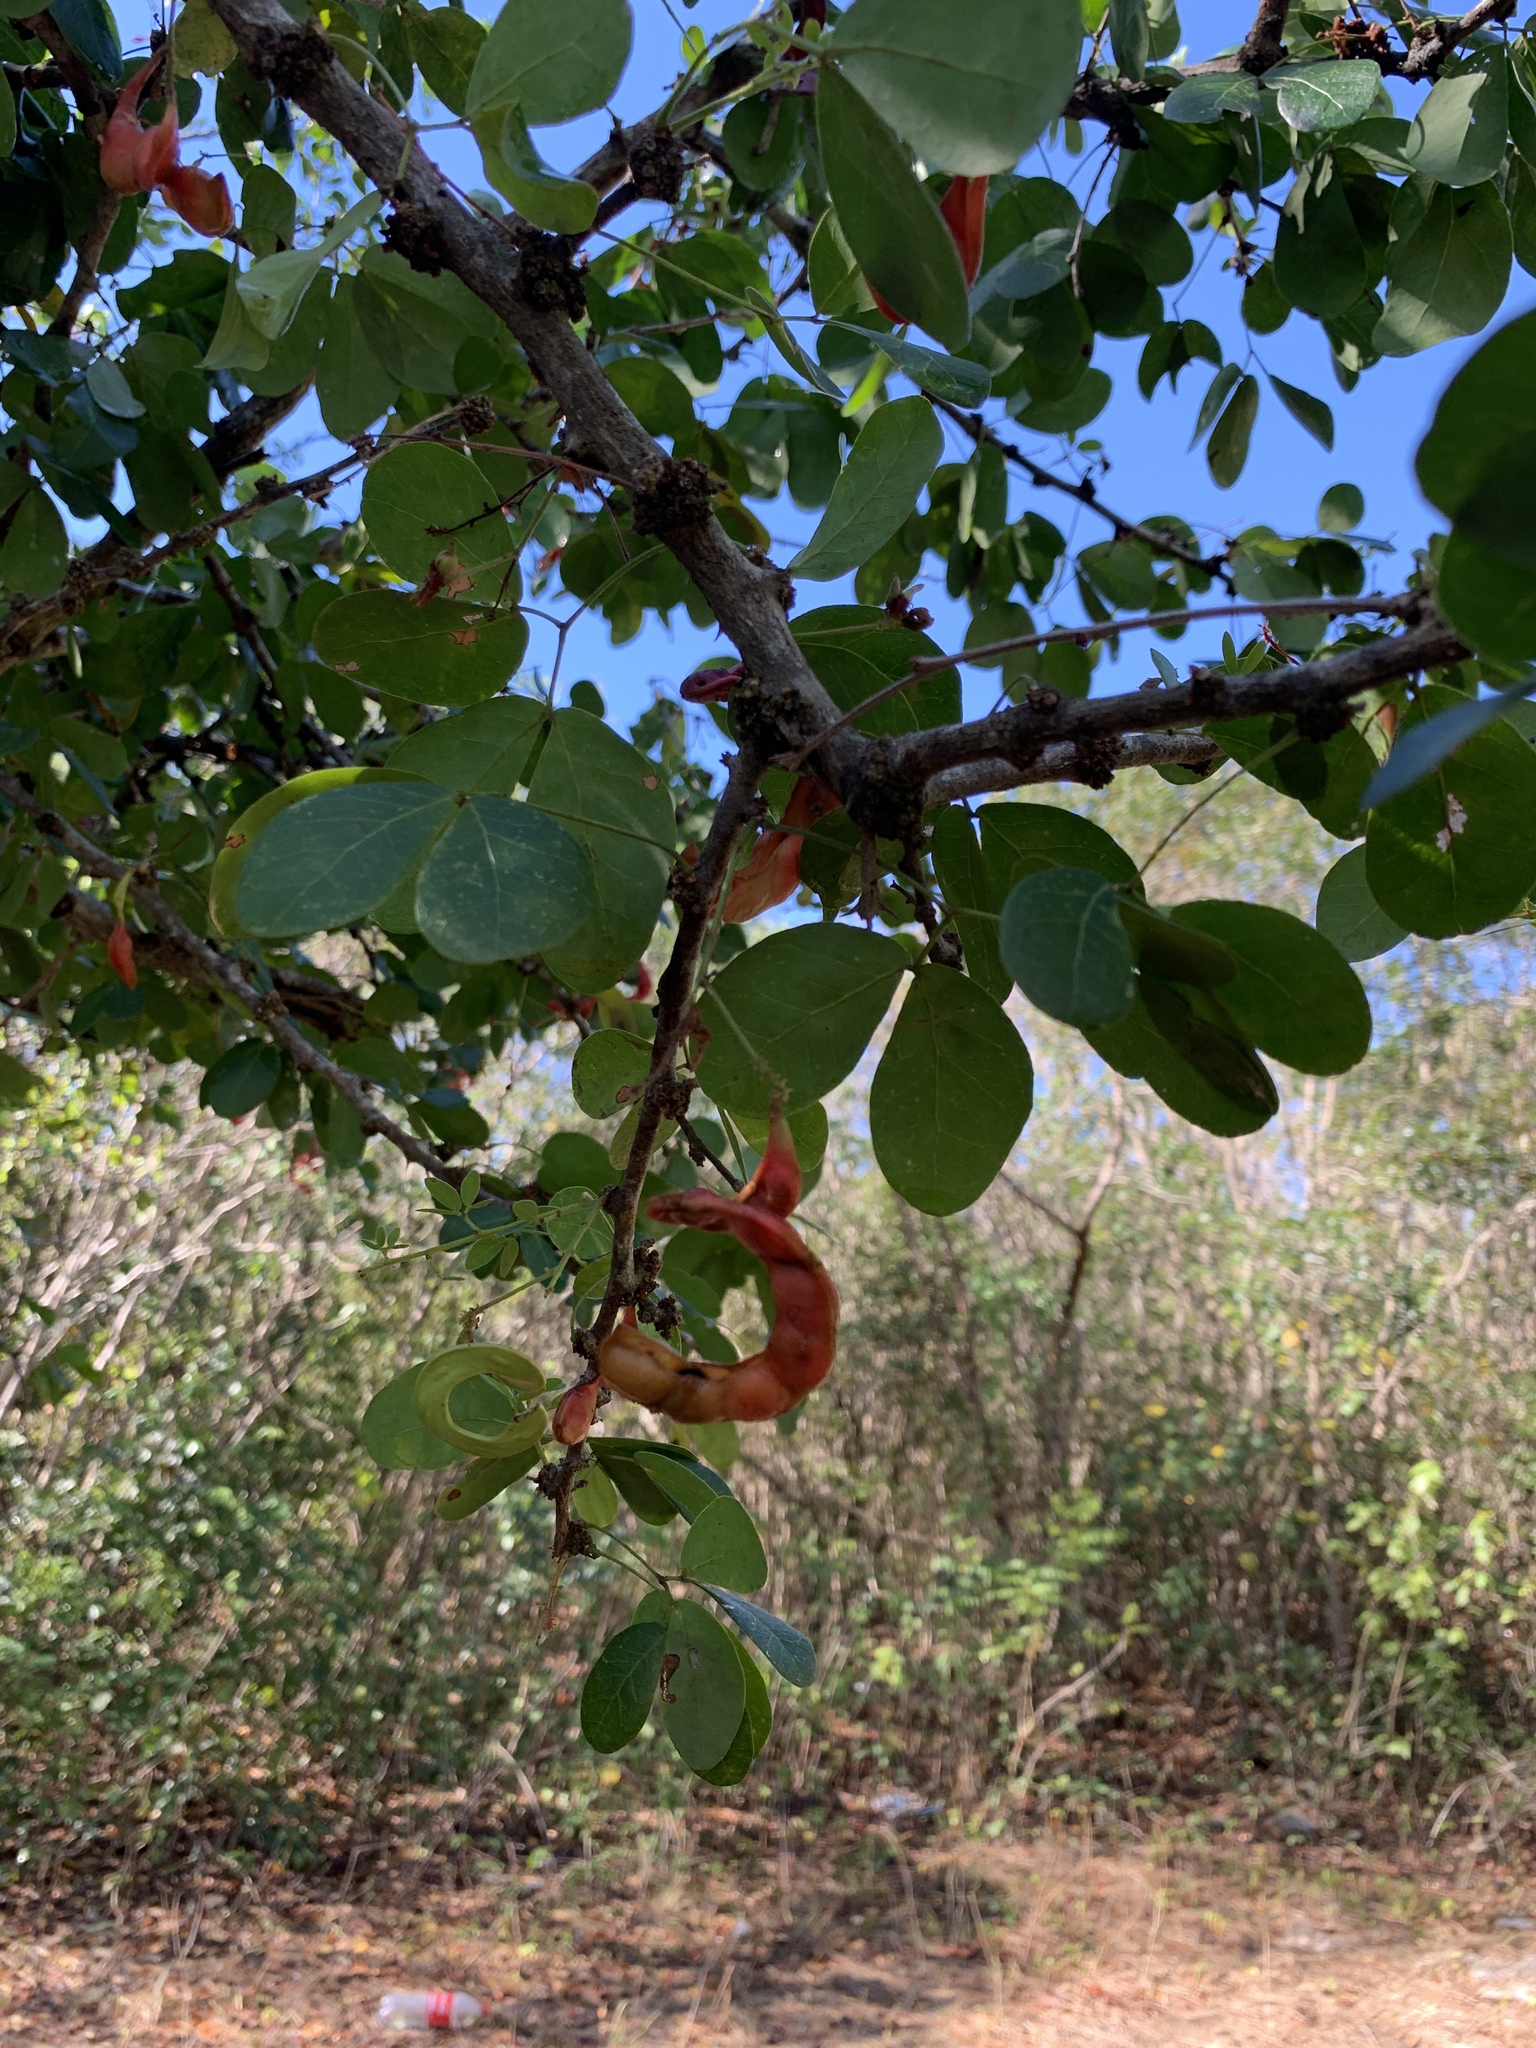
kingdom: Plantae
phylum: Tracheophyta
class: Magnoliopsida
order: Fabales
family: Fabaceae
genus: Pithecellobium
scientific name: Pithecellobium dulce
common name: Monkeypod
